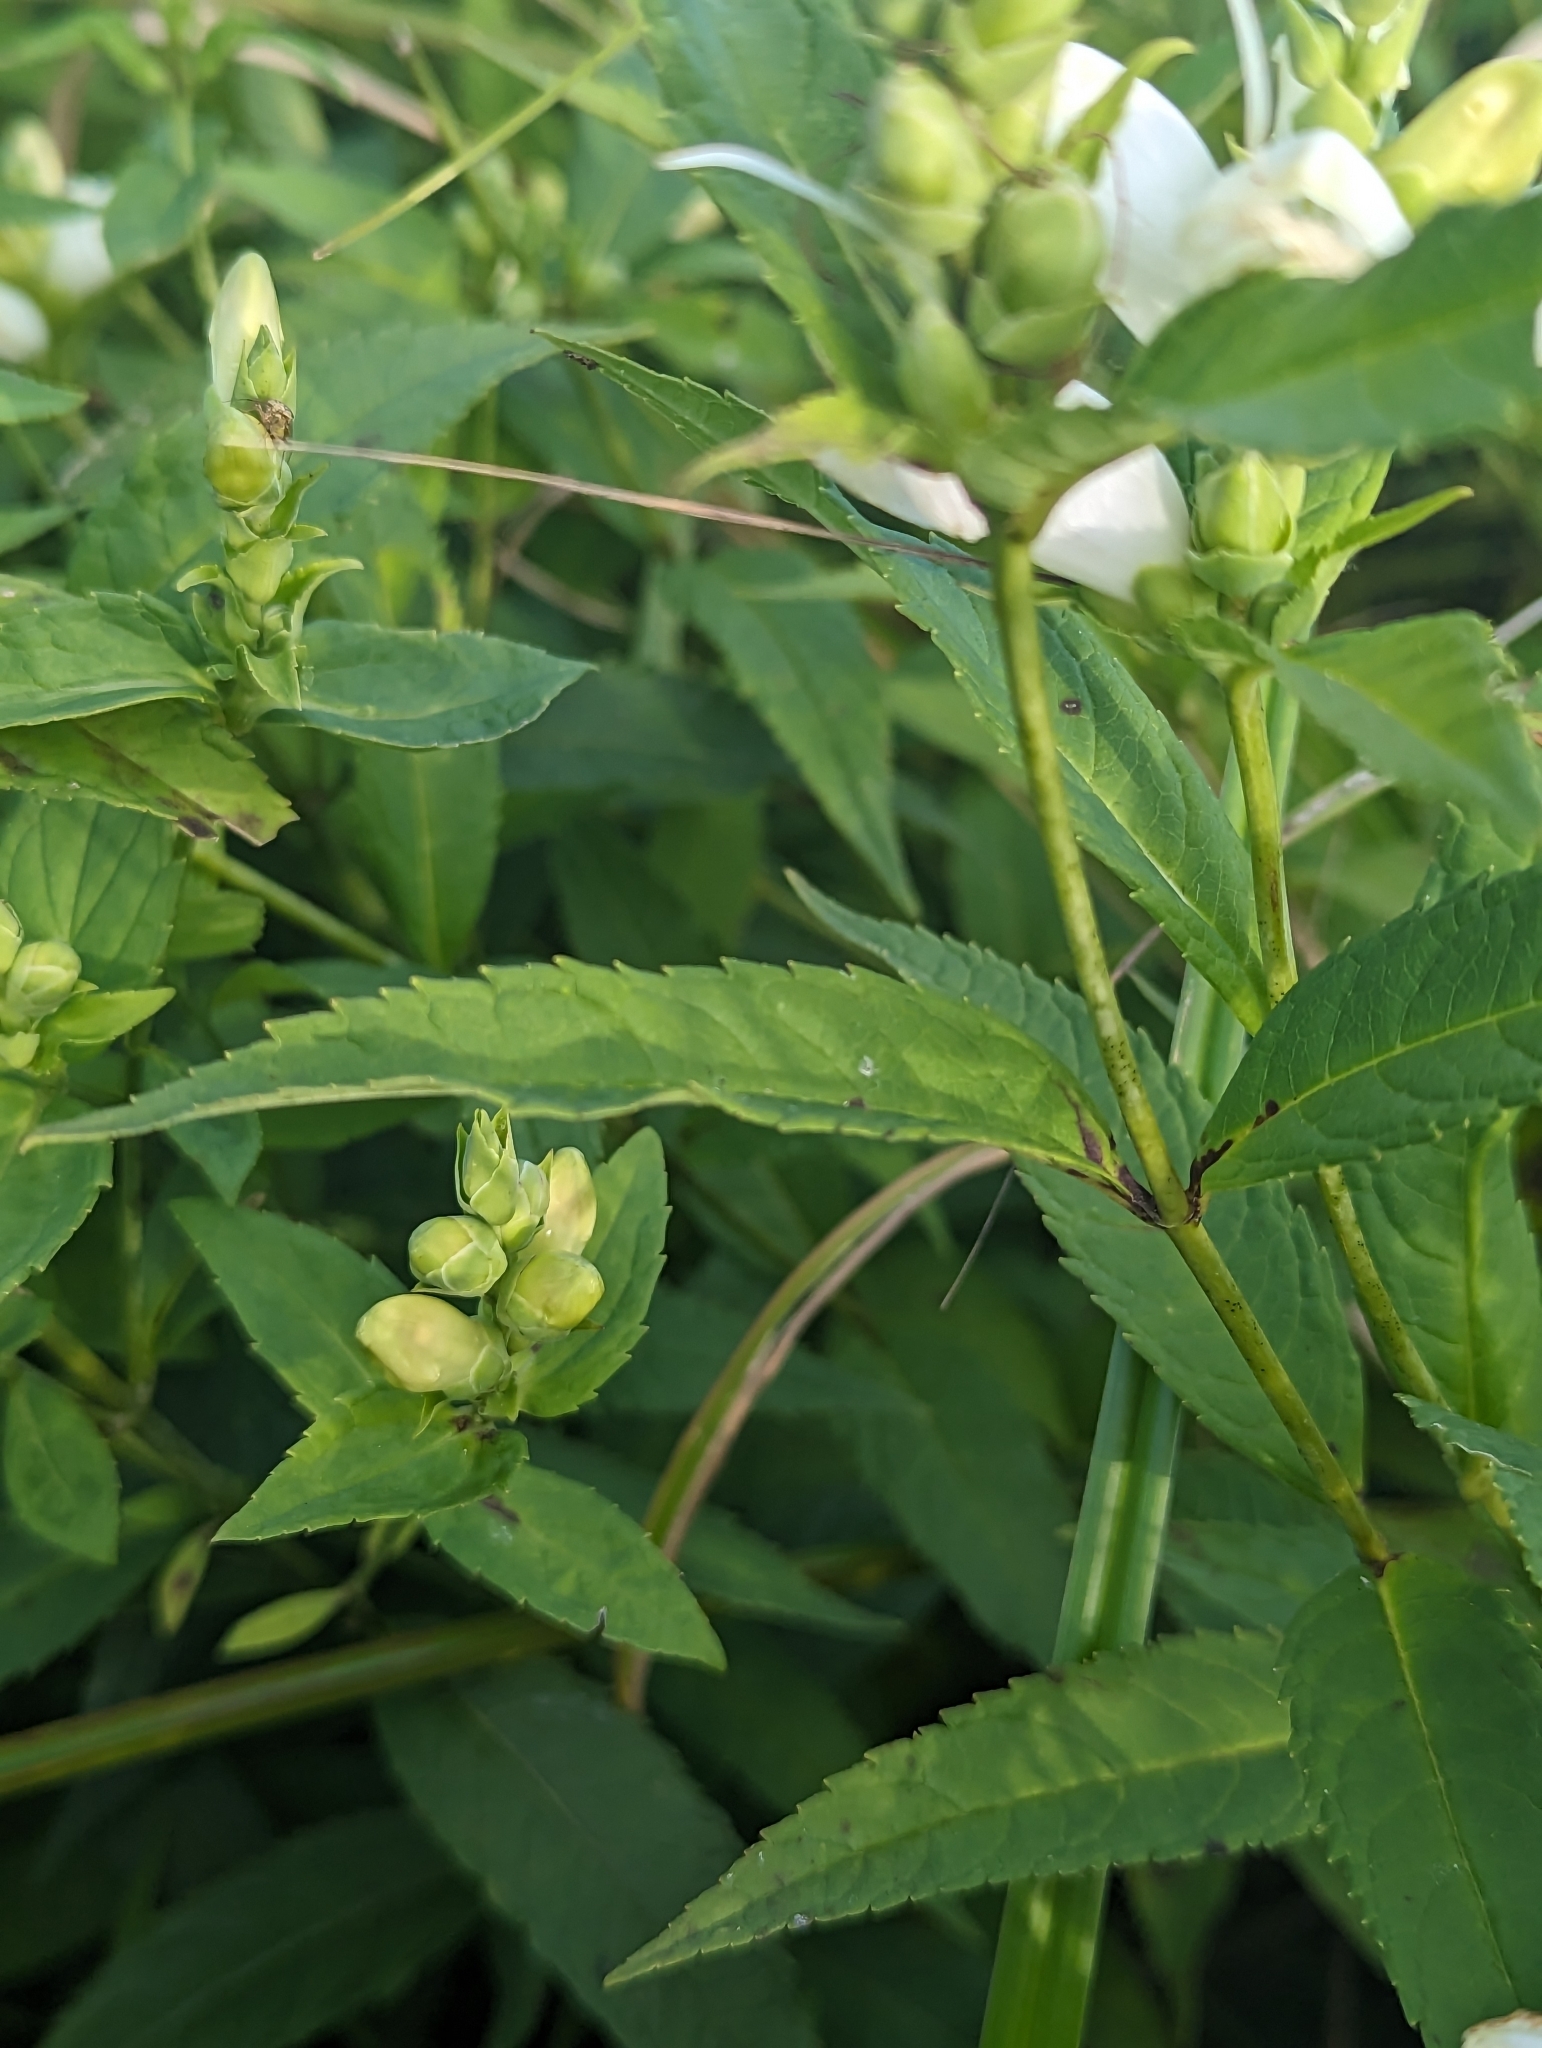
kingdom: Plantae
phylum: Tracheophyta
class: Magnoliopsida
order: Lamiales
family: Plantaginaceae
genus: Chelone
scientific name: Chelone glabra
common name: Snakehead
